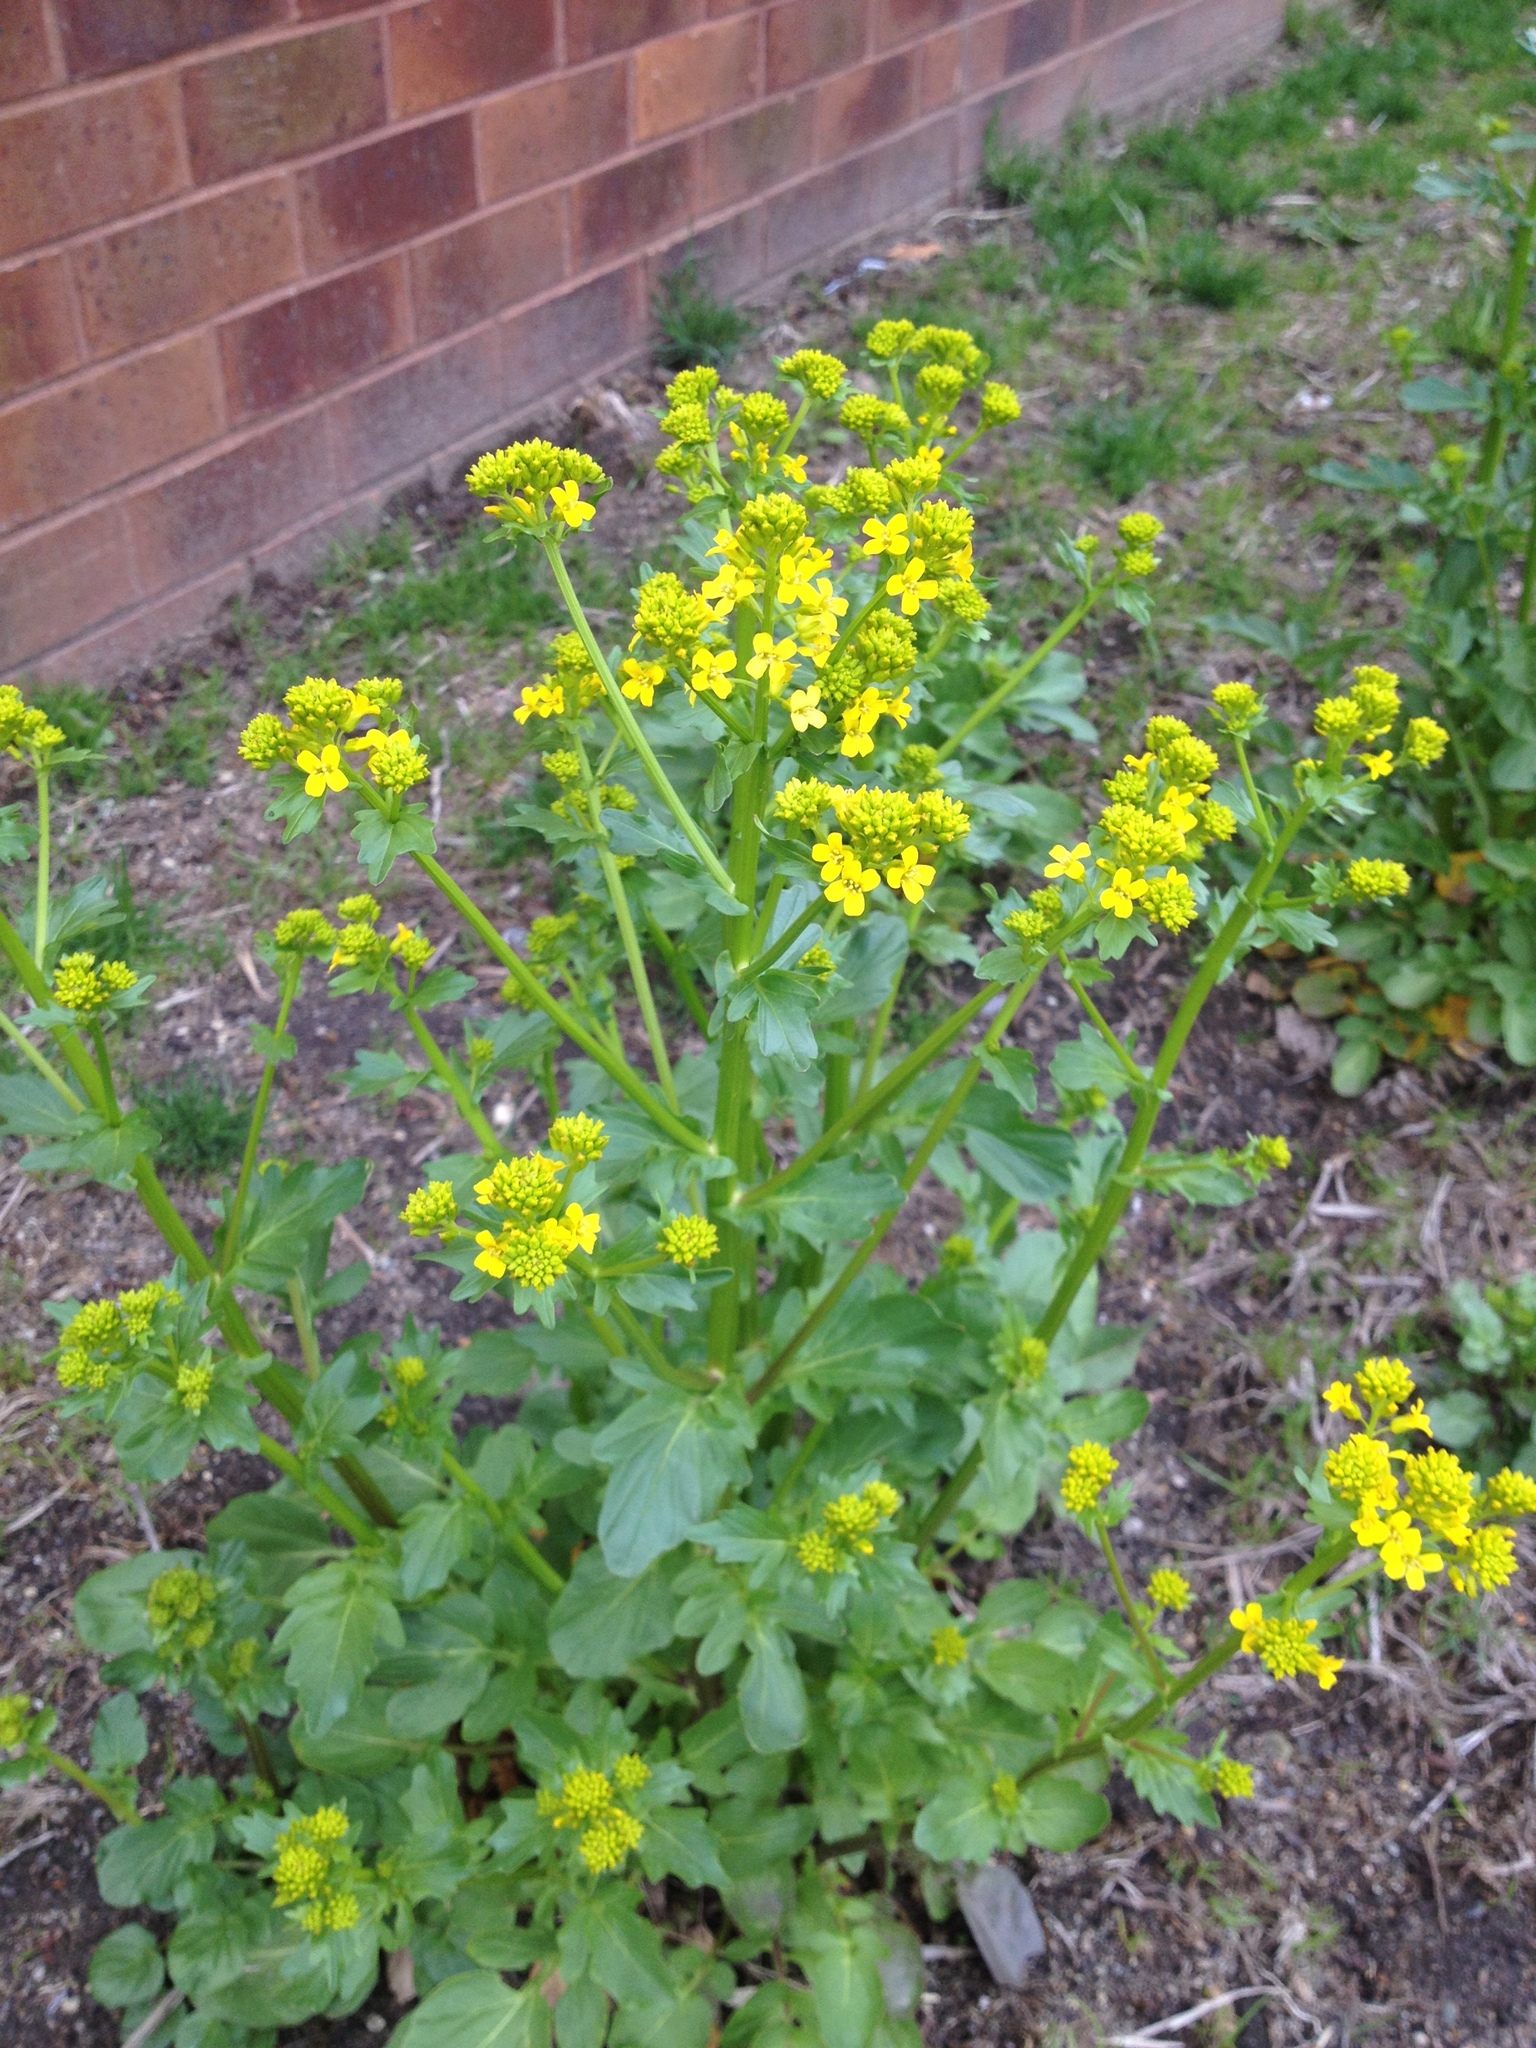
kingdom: Plantae
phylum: Tracheophyta
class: Magnoliopsida
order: Brassicales
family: Brassicaceae
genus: Barbarea
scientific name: Barbarea vulgaris
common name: Cressy-greens
